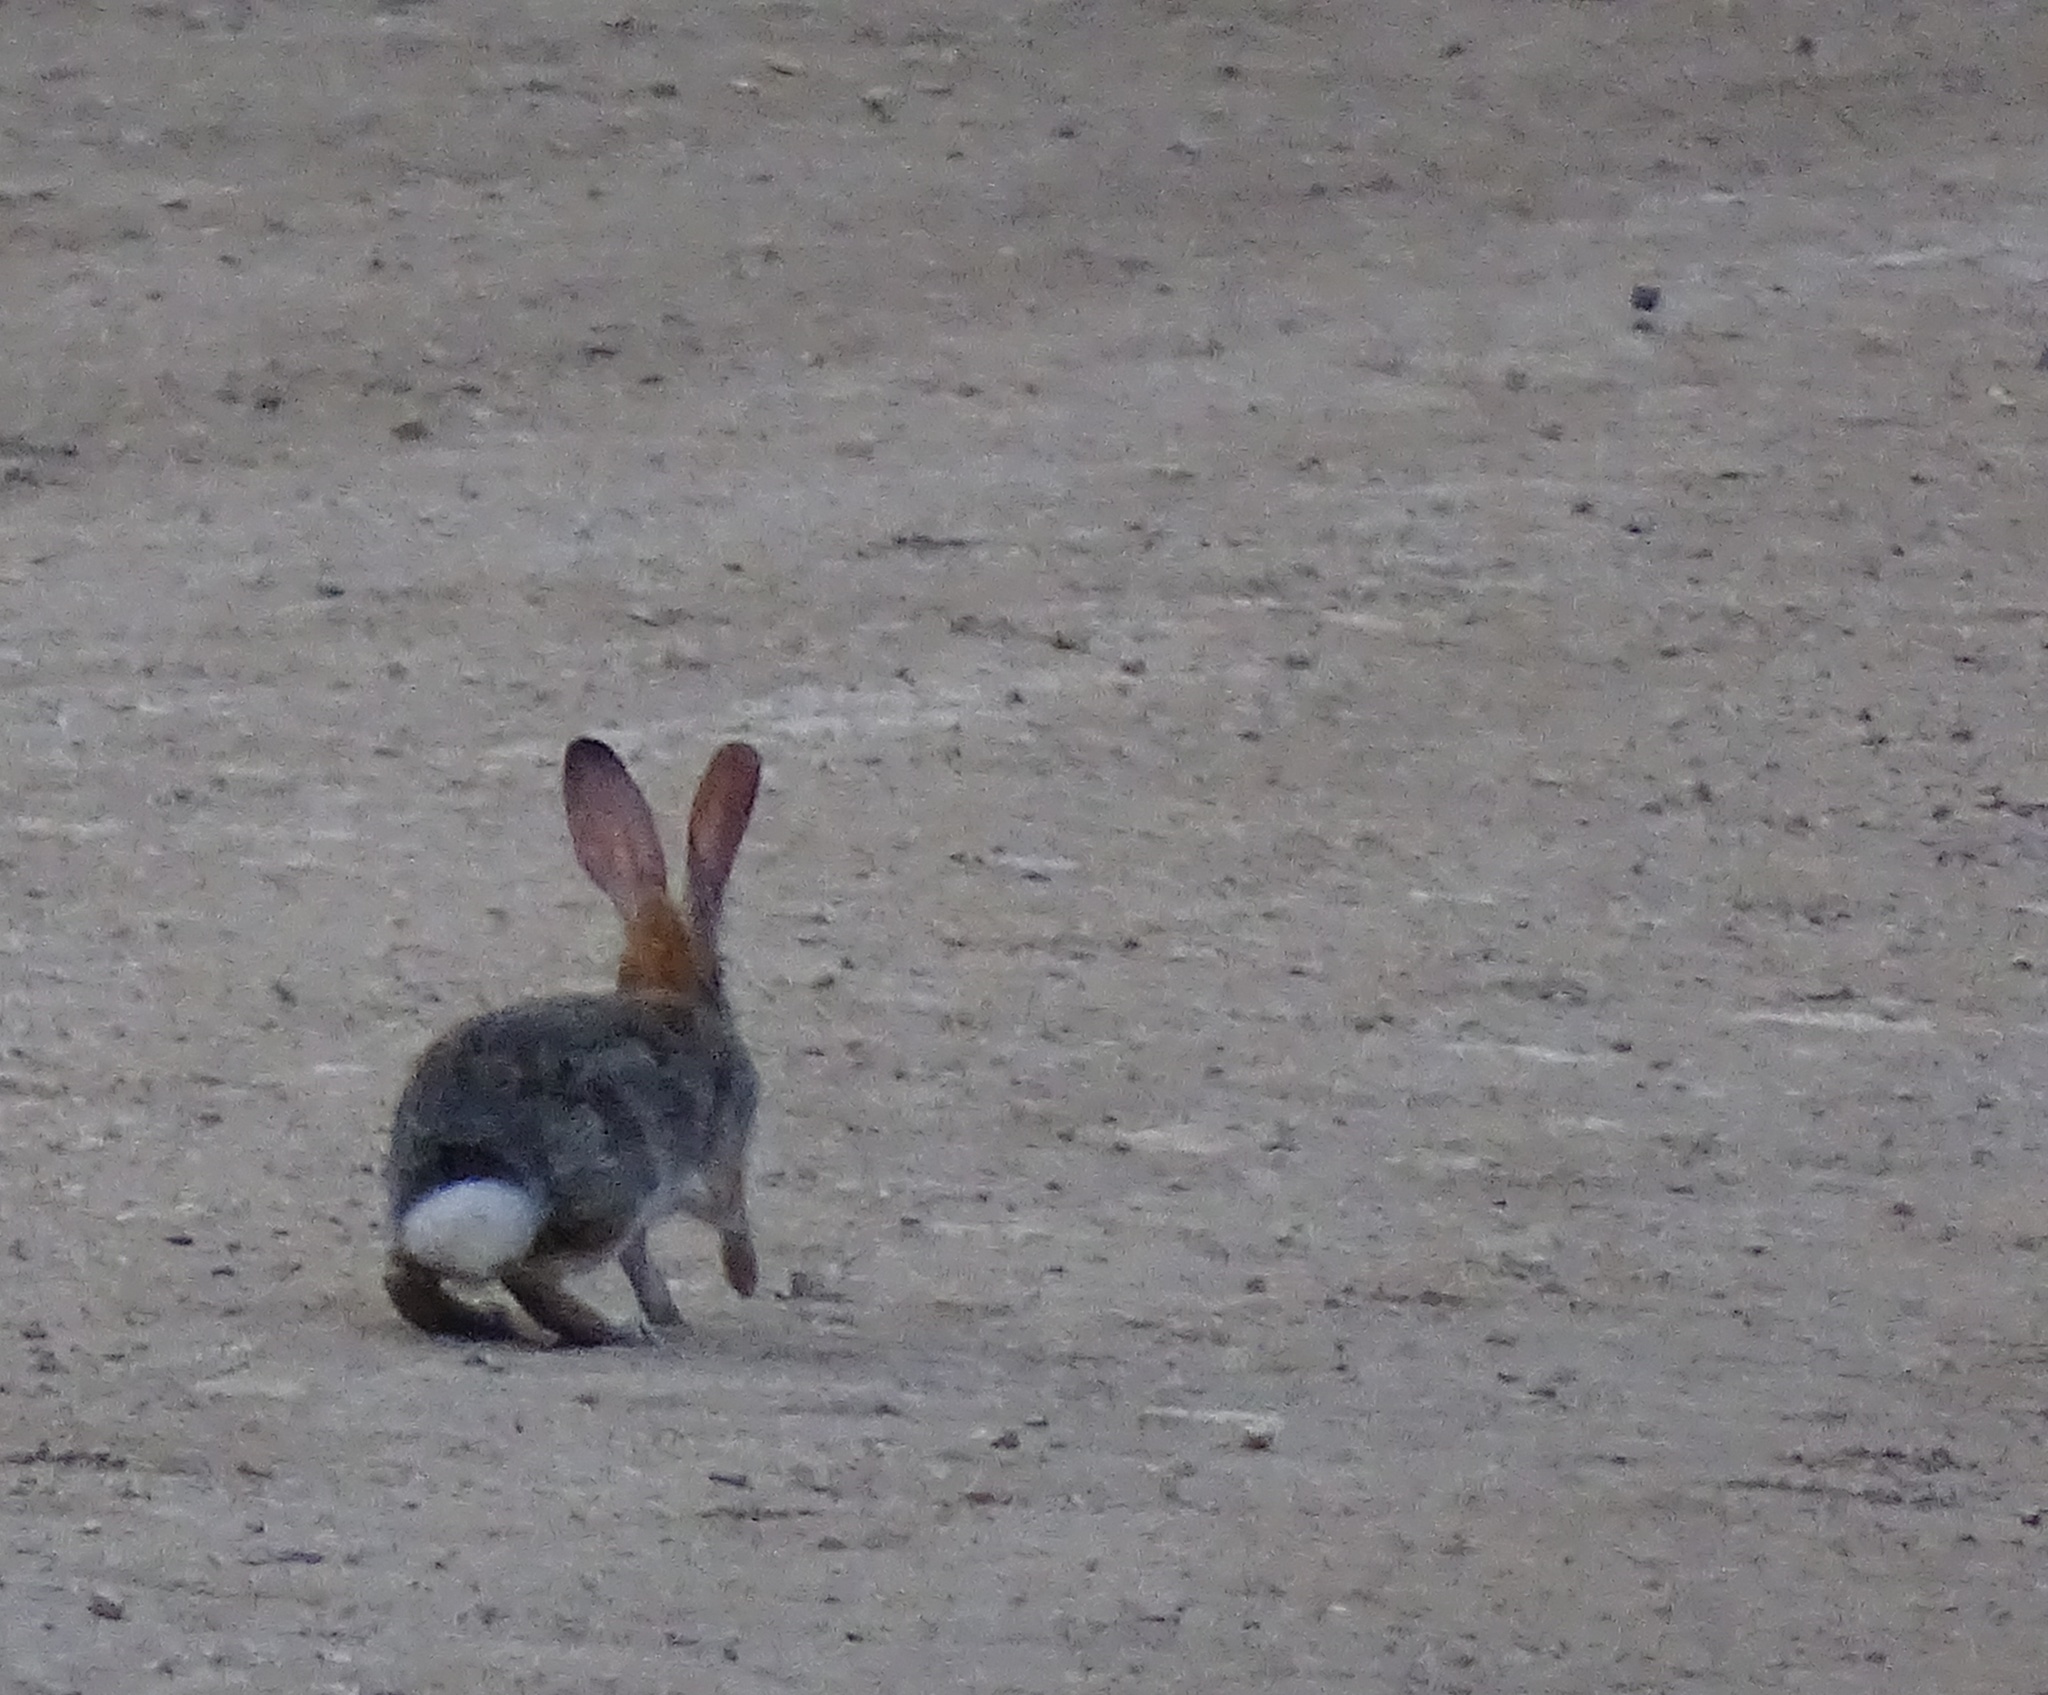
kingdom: Animalia
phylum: Chordata
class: Mammalia
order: Lagomorpha
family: Leporidae
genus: Sylvilagus
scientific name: Sylvilagus audubonii
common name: Desert cottontail
